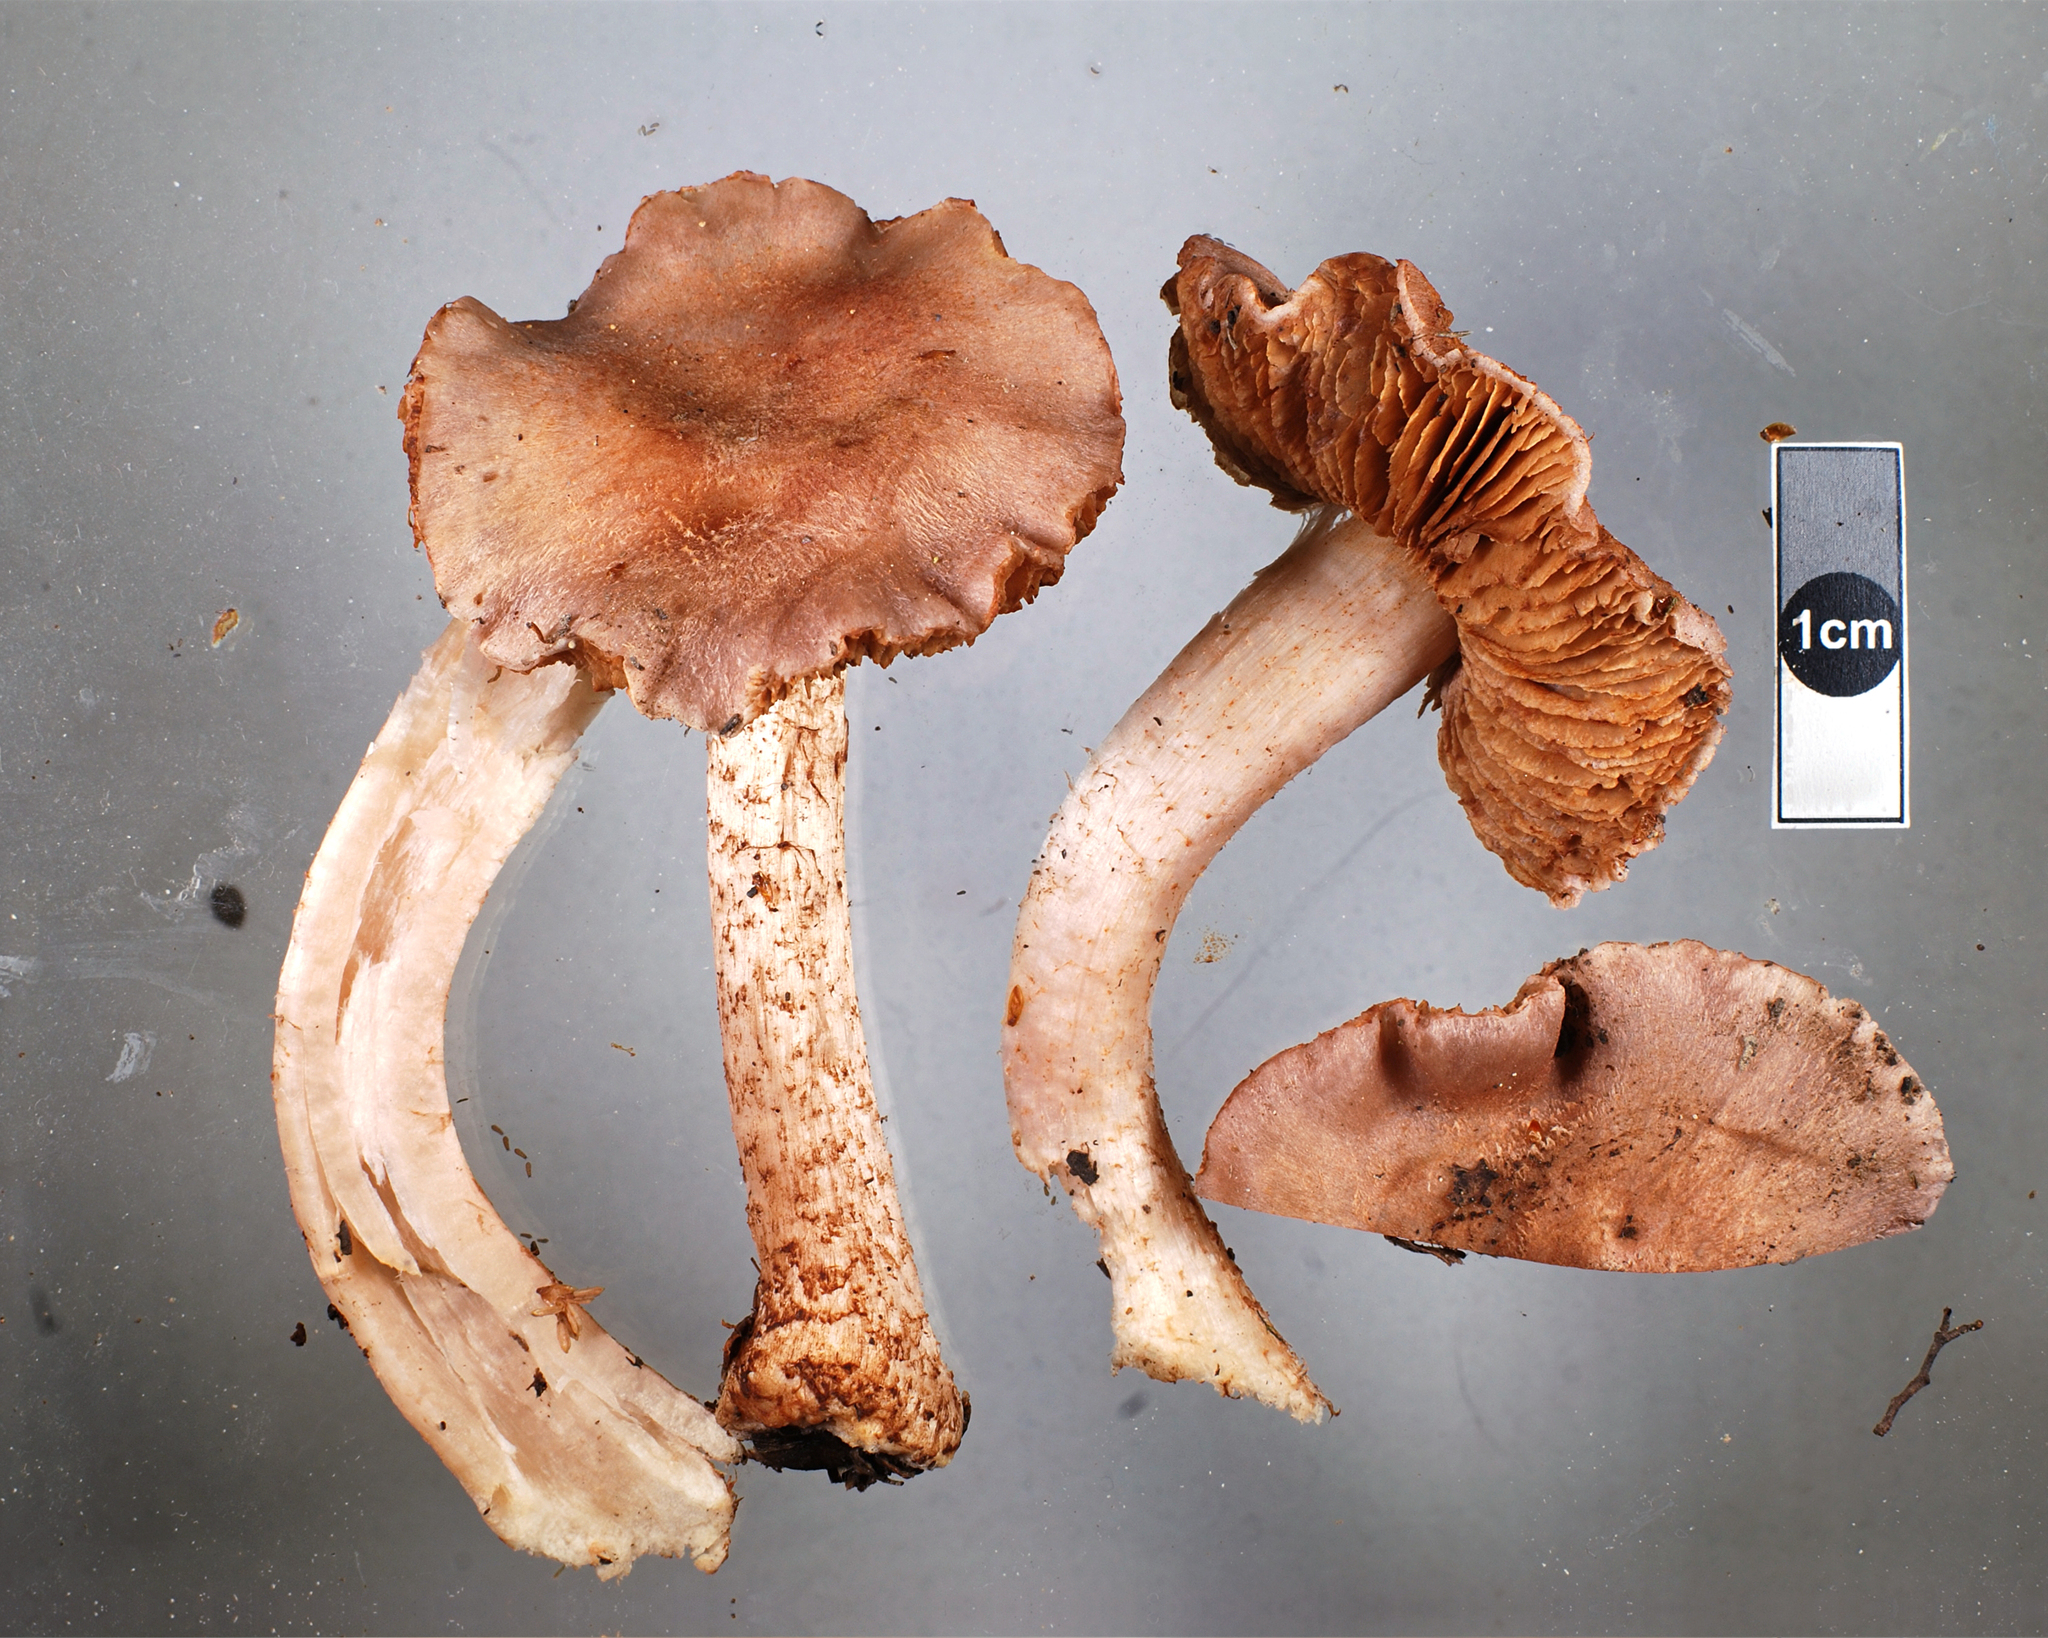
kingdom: Fungi
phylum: Basidiomycota
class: Agaricomycetes
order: Agaricales
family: Cortinariaceae
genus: Cortinarius
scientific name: Cortinarius alboroseus
